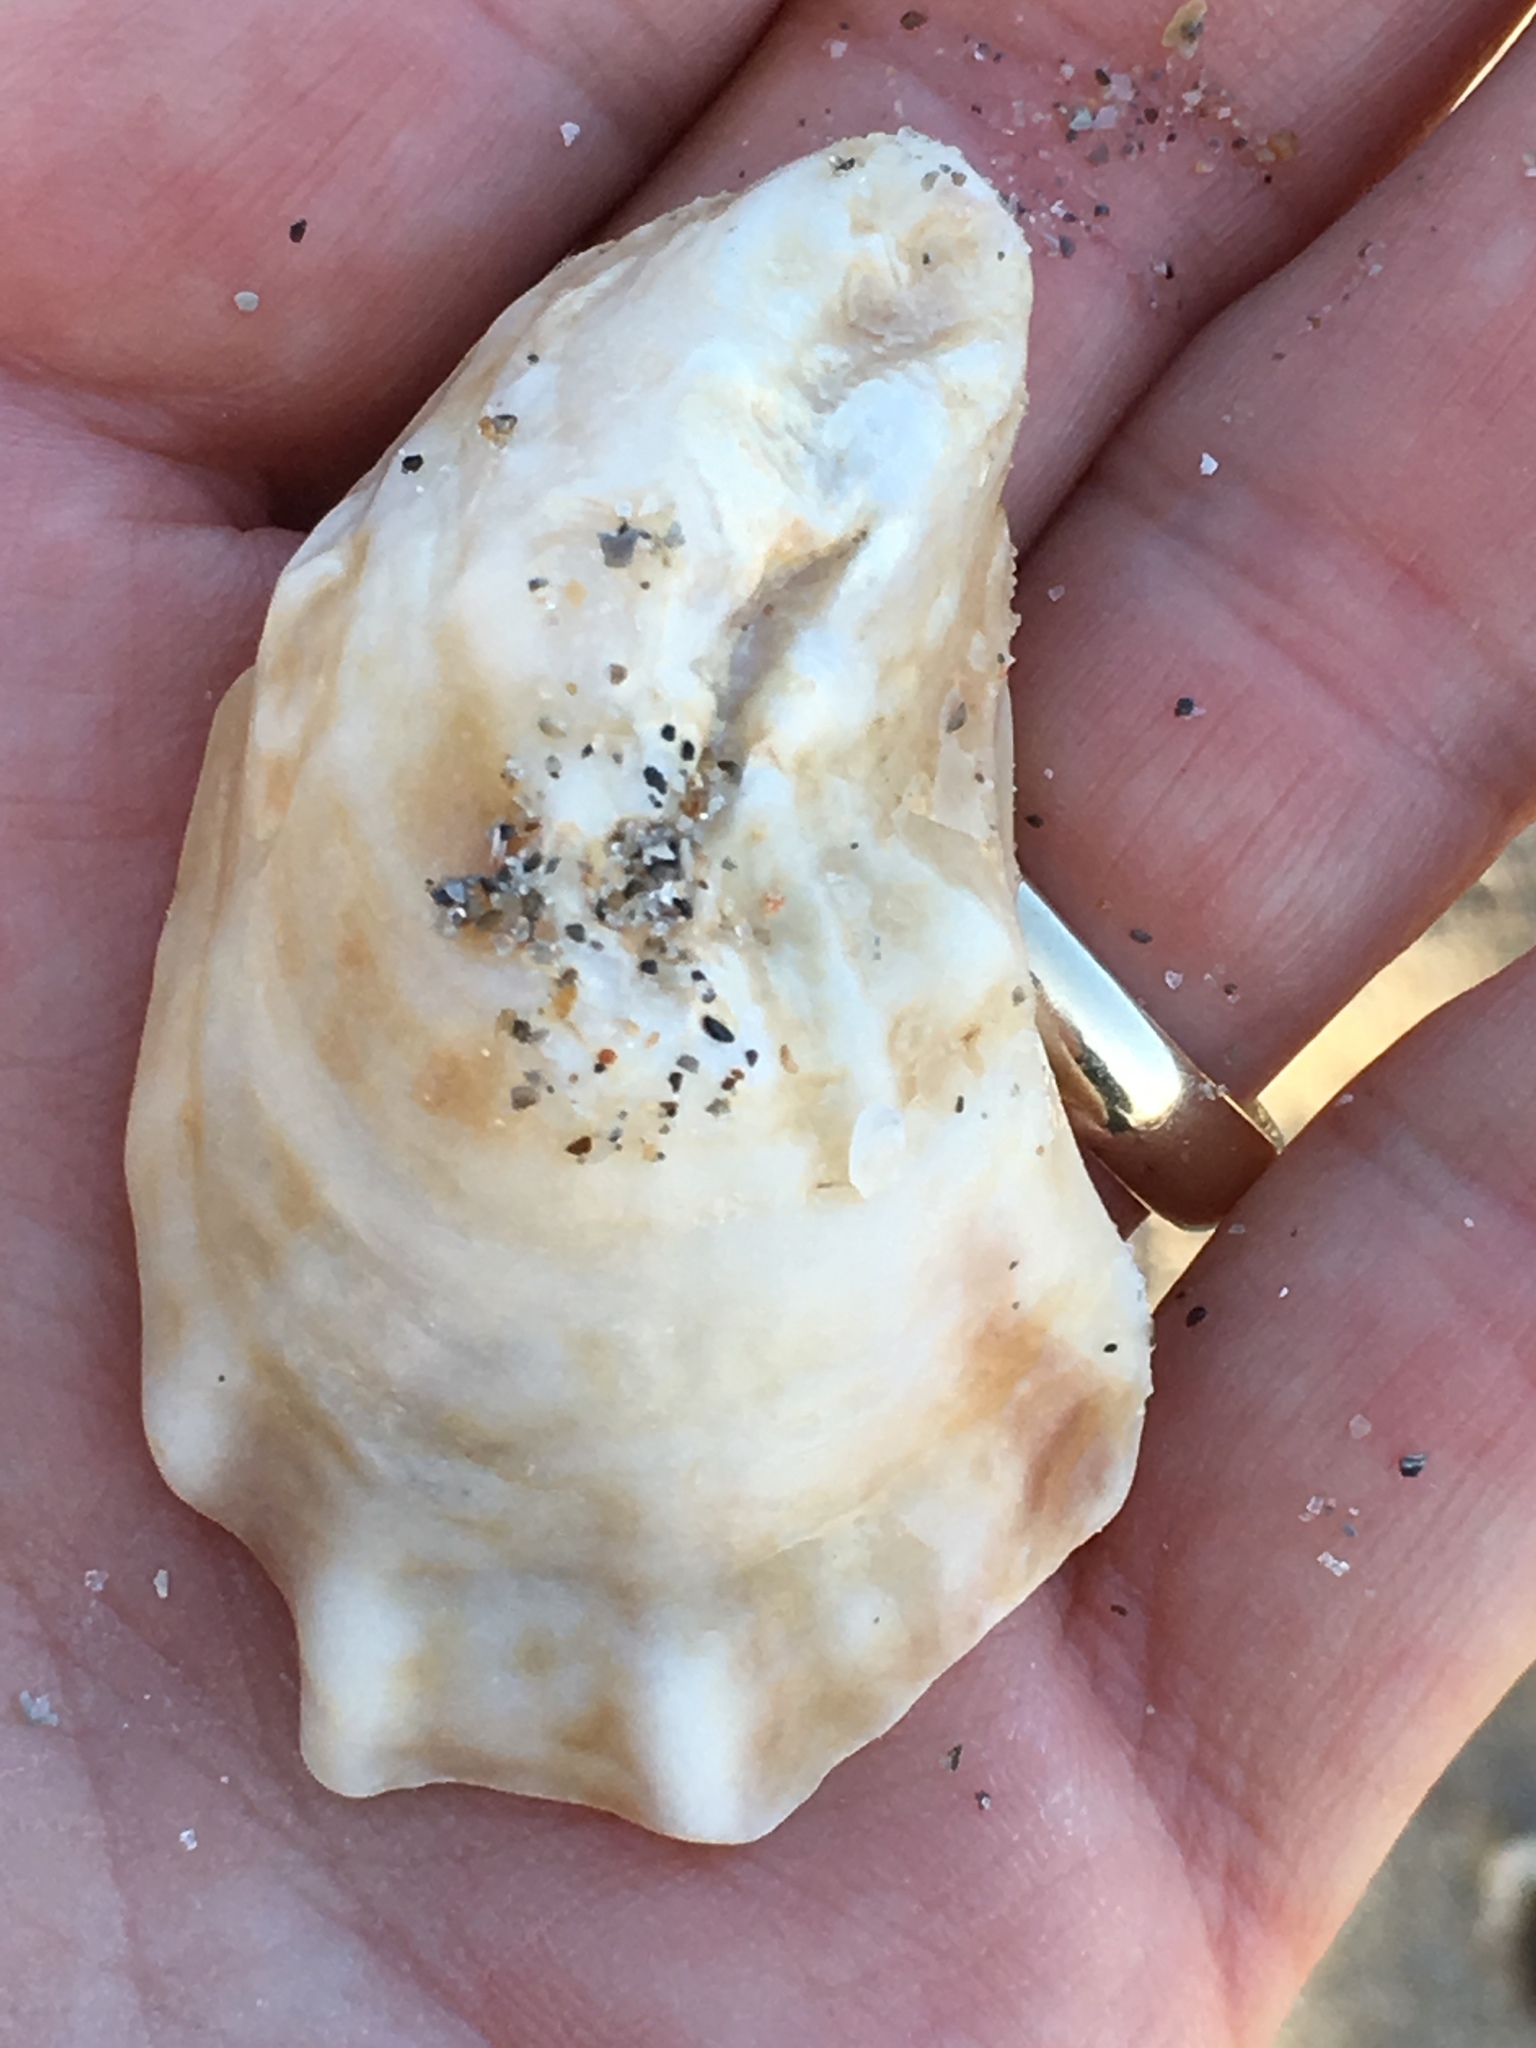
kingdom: Animalia
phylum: Mollusca
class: Bivalvia
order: Ostreida
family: Ostreidae
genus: Crassostrea
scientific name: Crassostrea virginica
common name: American oyster
